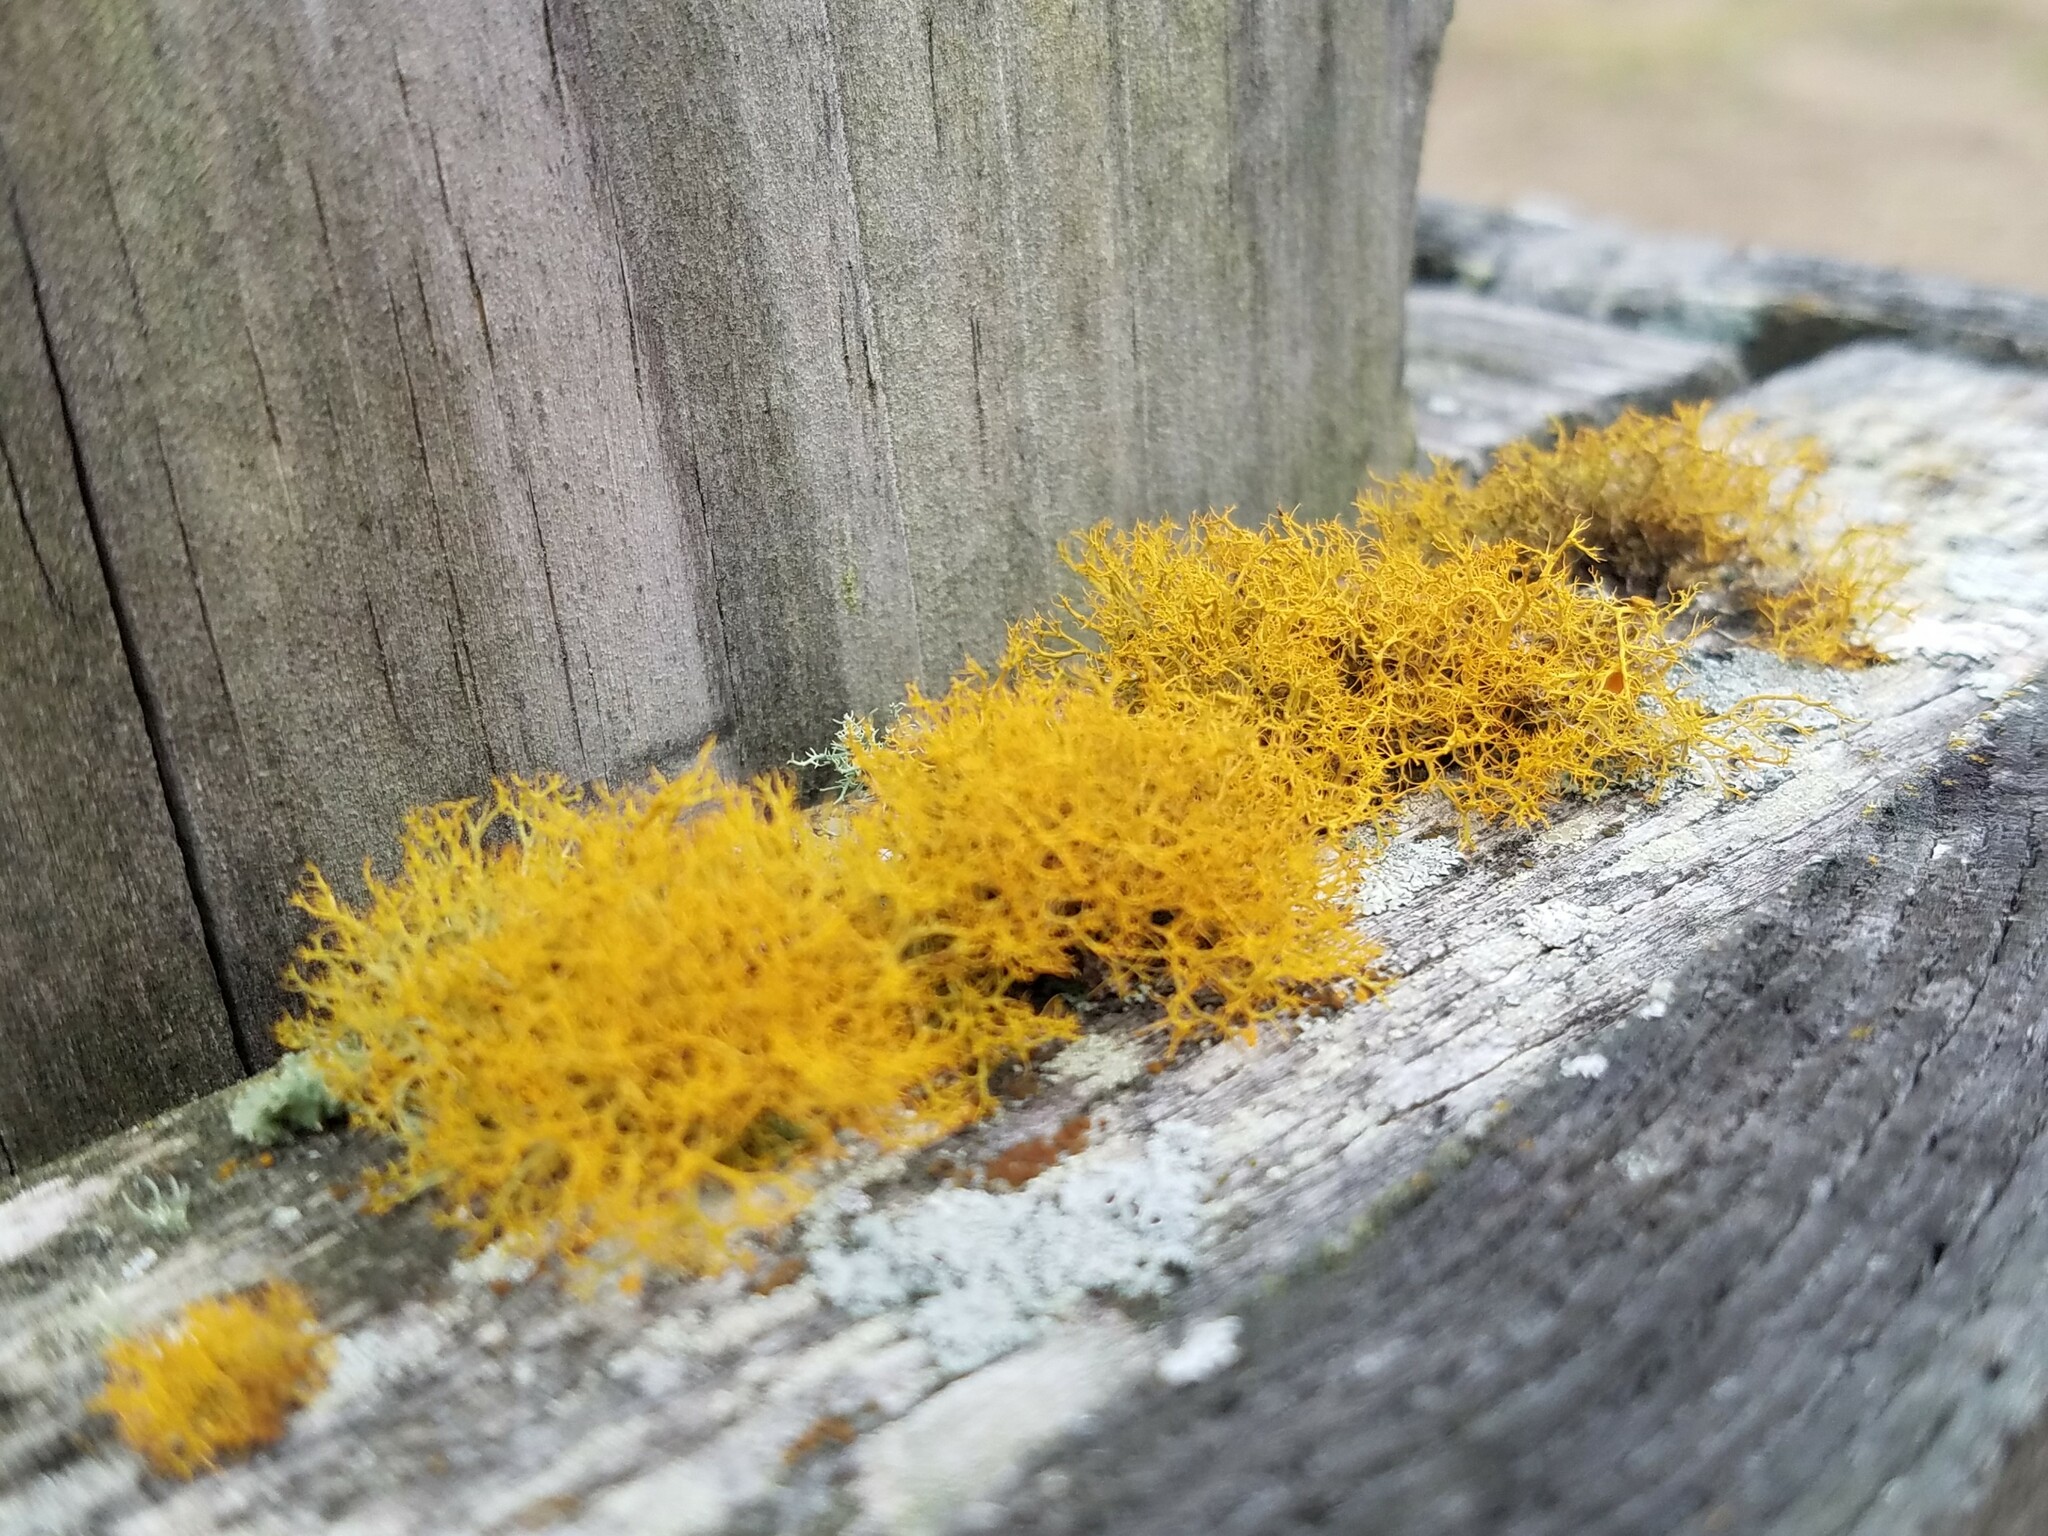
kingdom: Fungi
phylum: Ascomycota
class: Lecanoromycetes
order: Teloschistales
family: Teloschistaceae
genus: Teloschistes
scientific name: Teloschistes exilis
